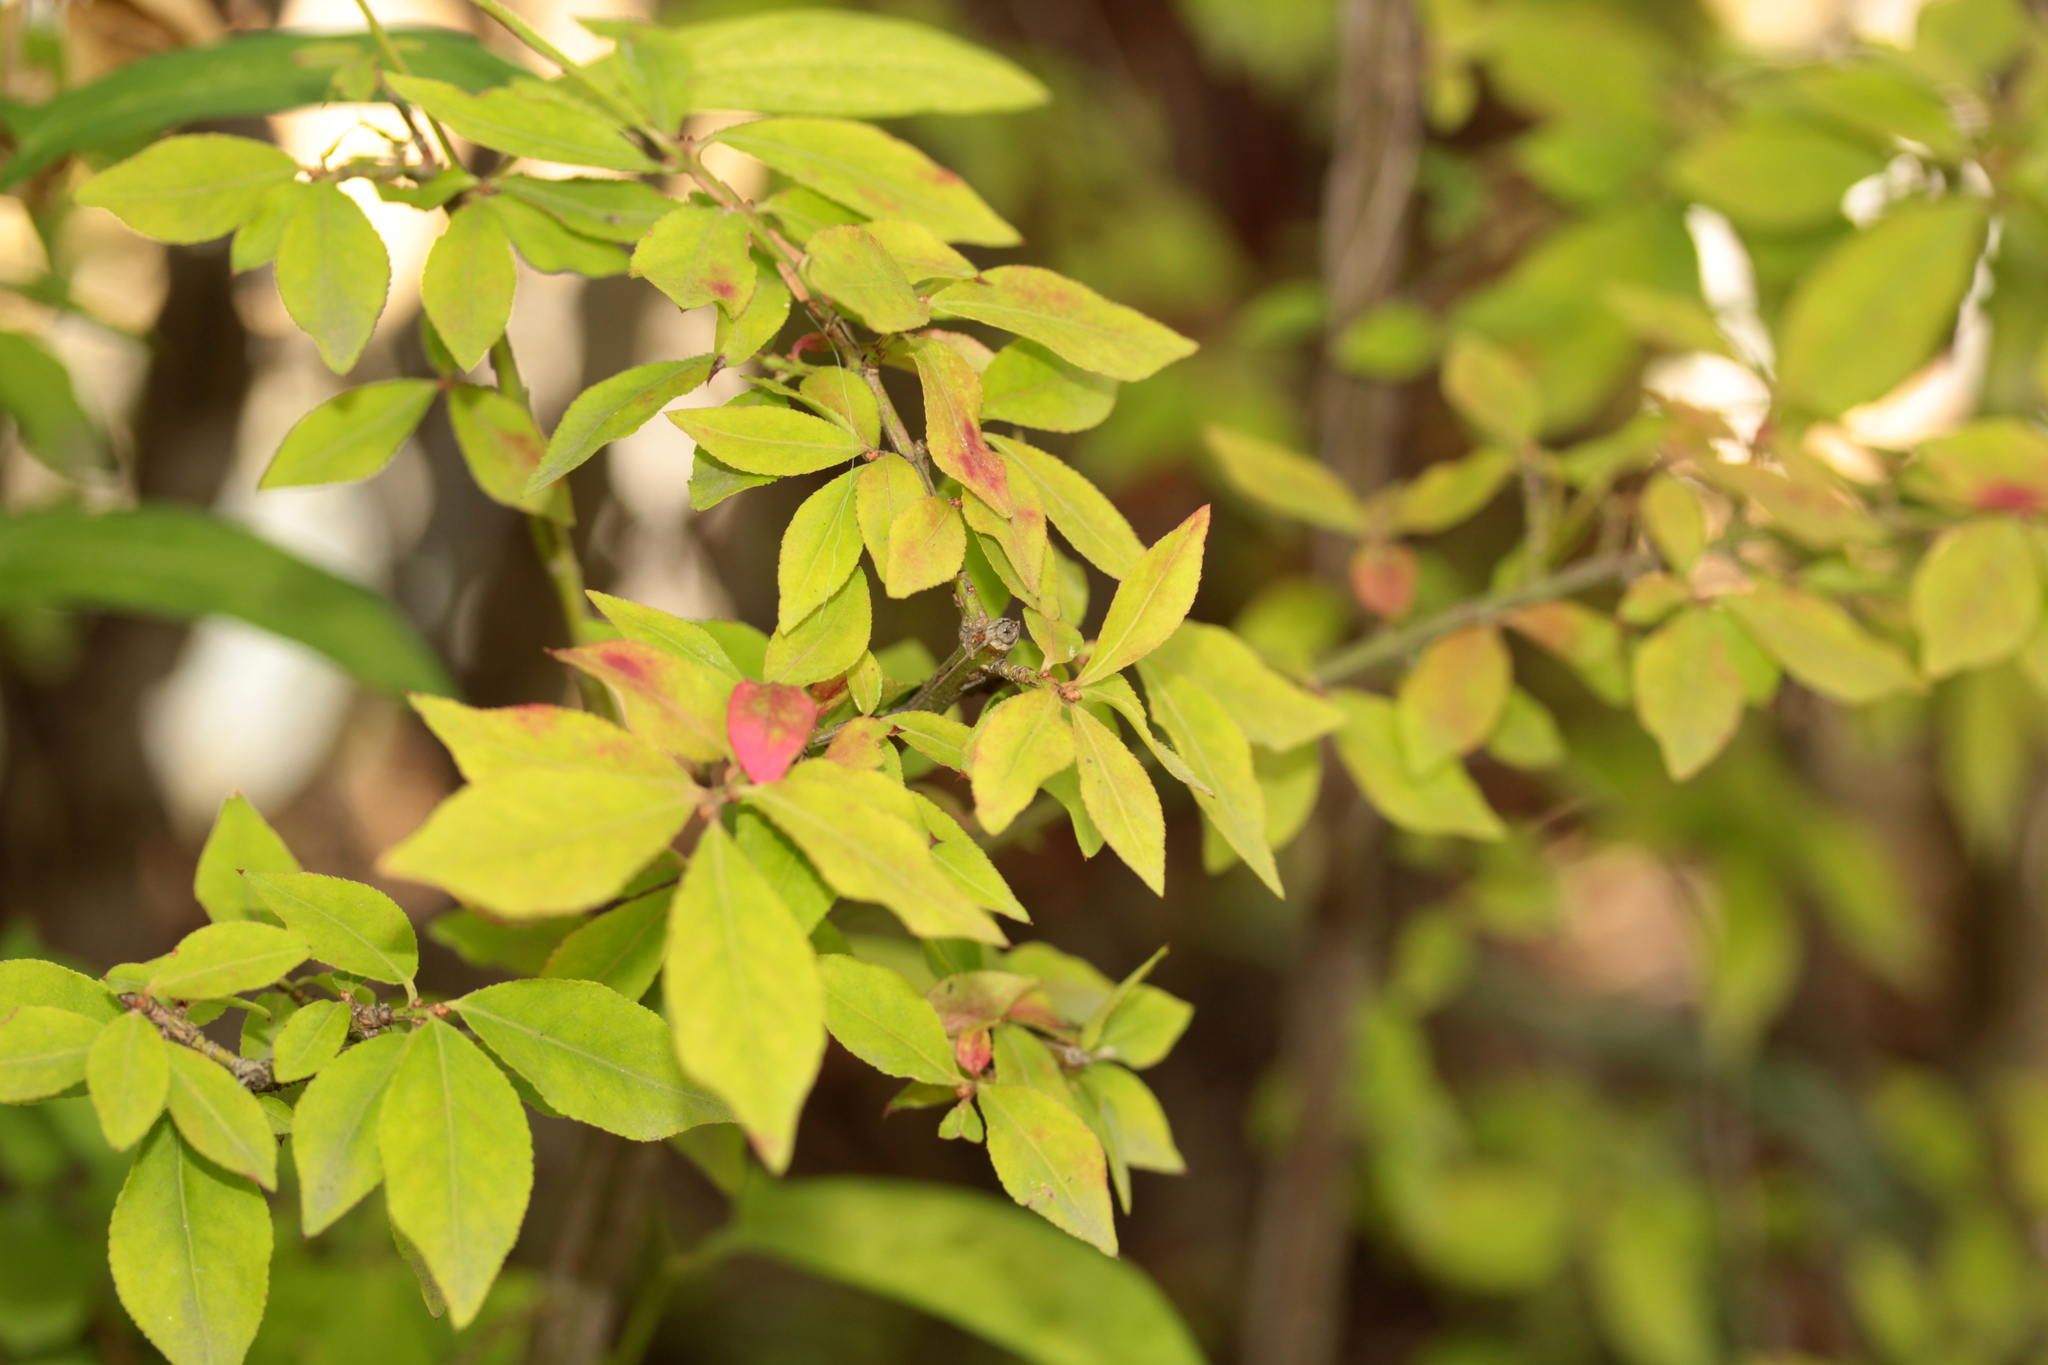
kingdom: Plantae
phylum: Tracheophyta
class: Magnoliopsida
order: Celastrales
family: Celastraceae
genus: Euonymus
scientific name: Euonymus alatus
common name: Winged euonymus
